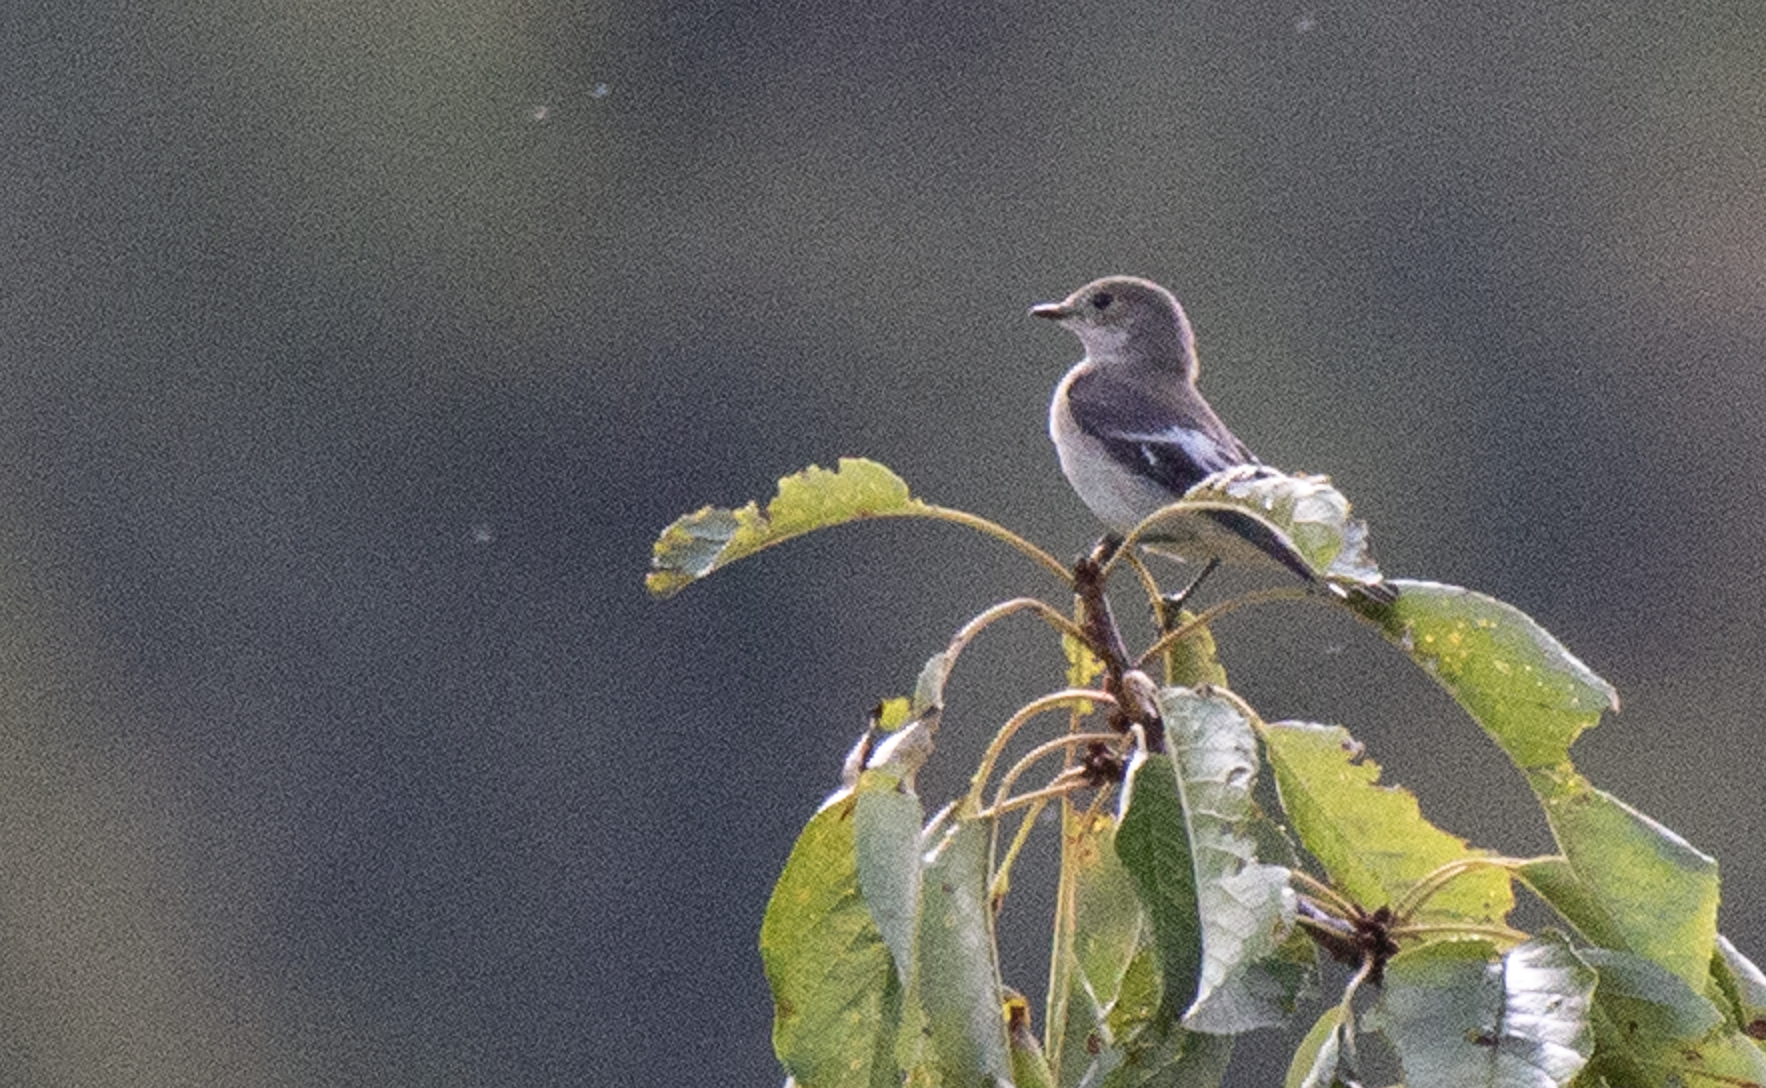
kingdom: Animalia
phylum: Chordata
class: Aves
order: Passeriformes
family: Muscicapidae
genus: Ficedula
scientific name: Ficedula hypoleuca
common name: European pied flycatcher
